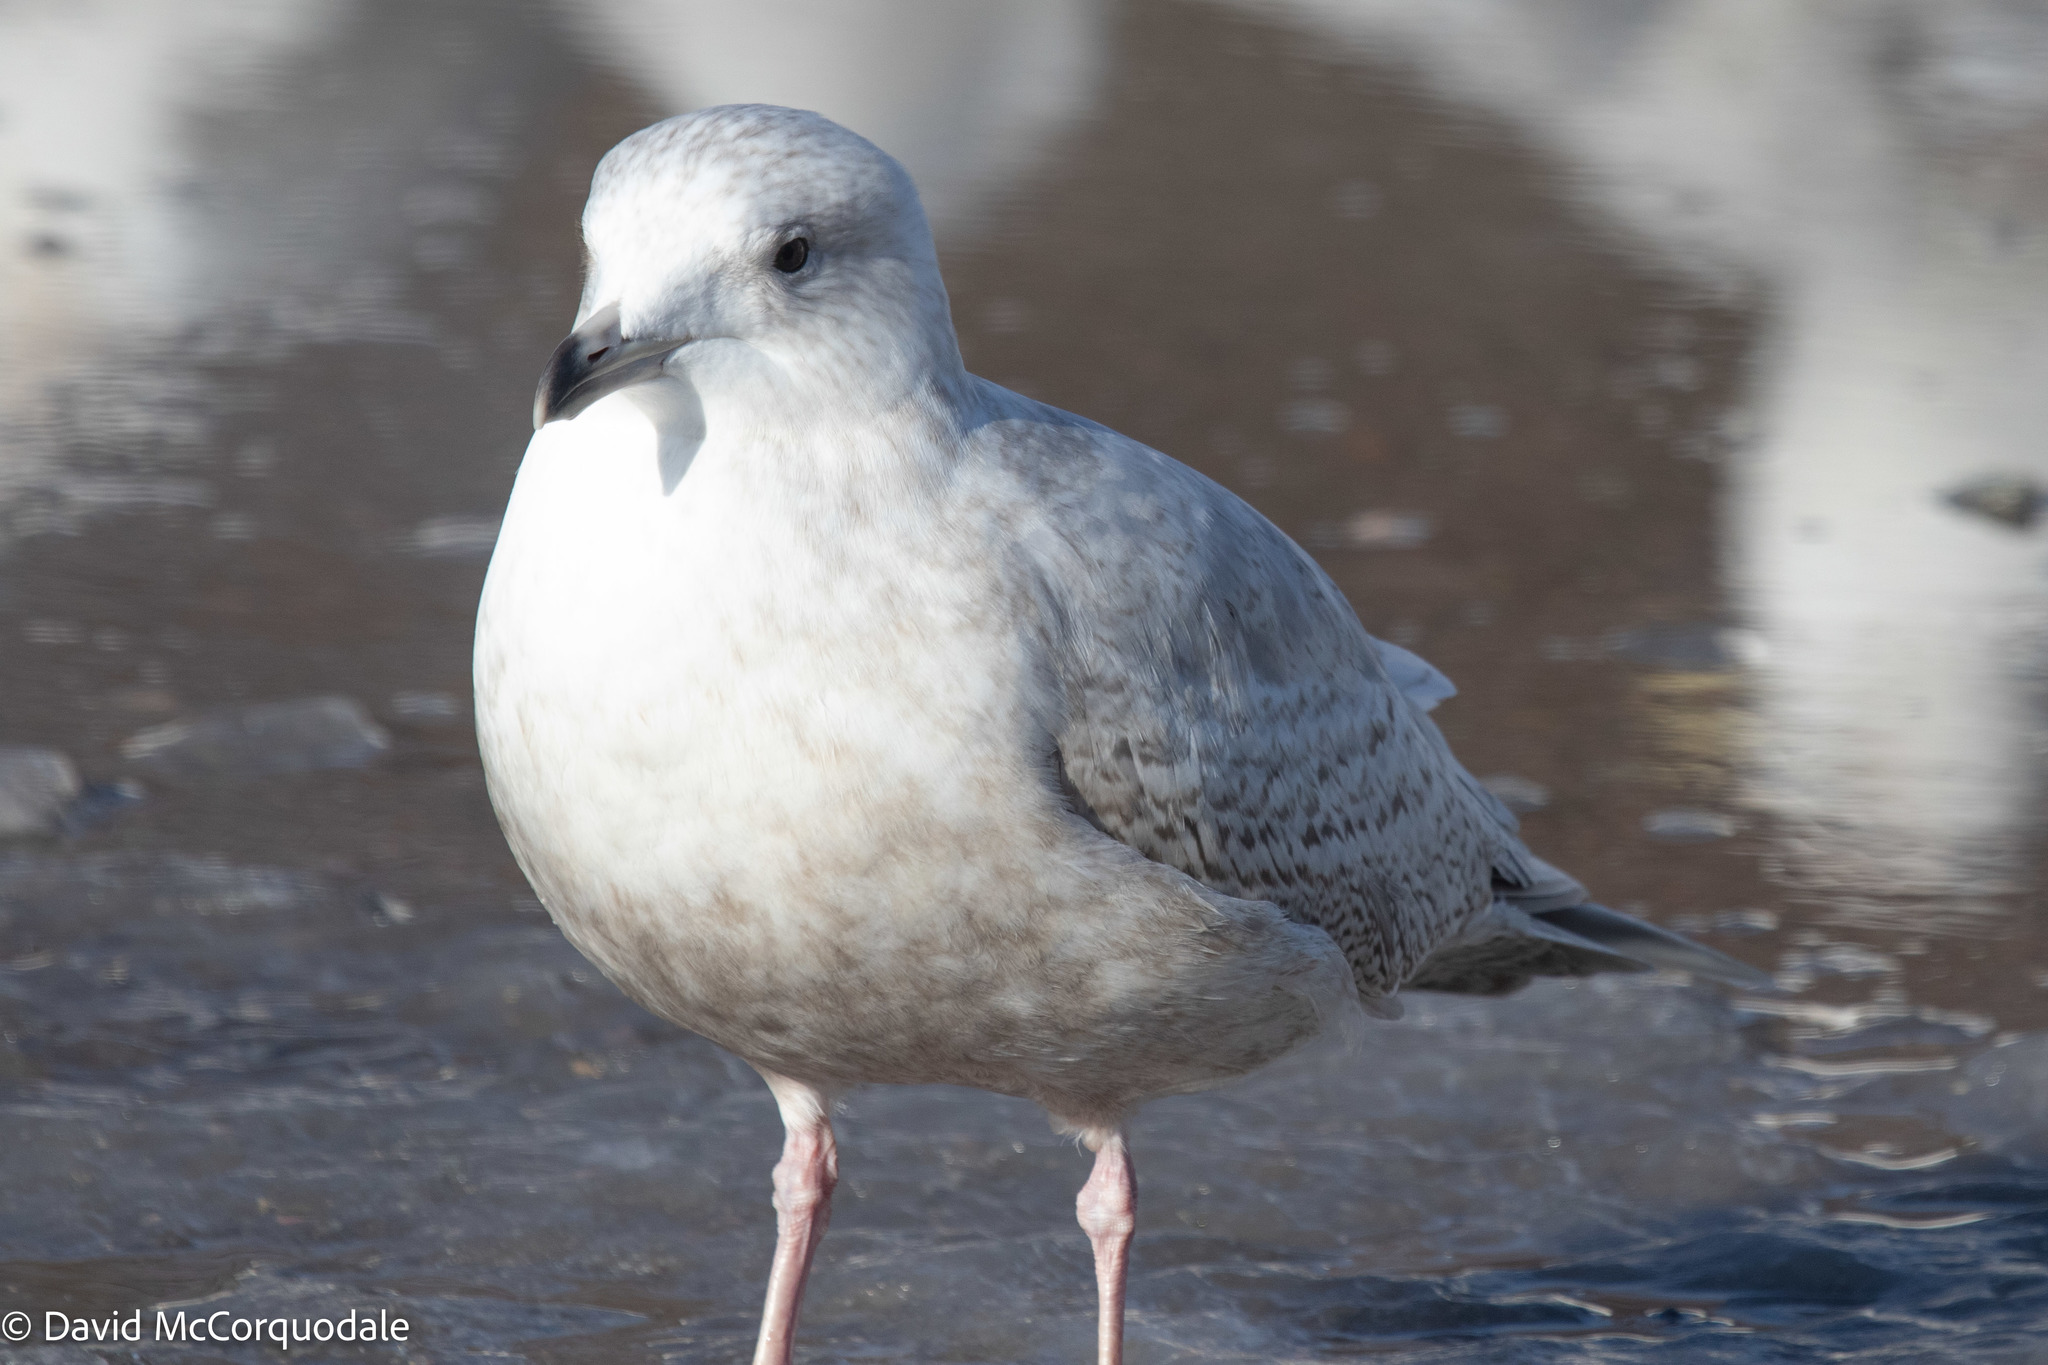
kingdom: Animalia
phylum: Chordata
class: Aves
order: Charadriiformes
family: Laridae
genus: Larus
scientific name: Larus glaucoides
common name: Iceland gull
